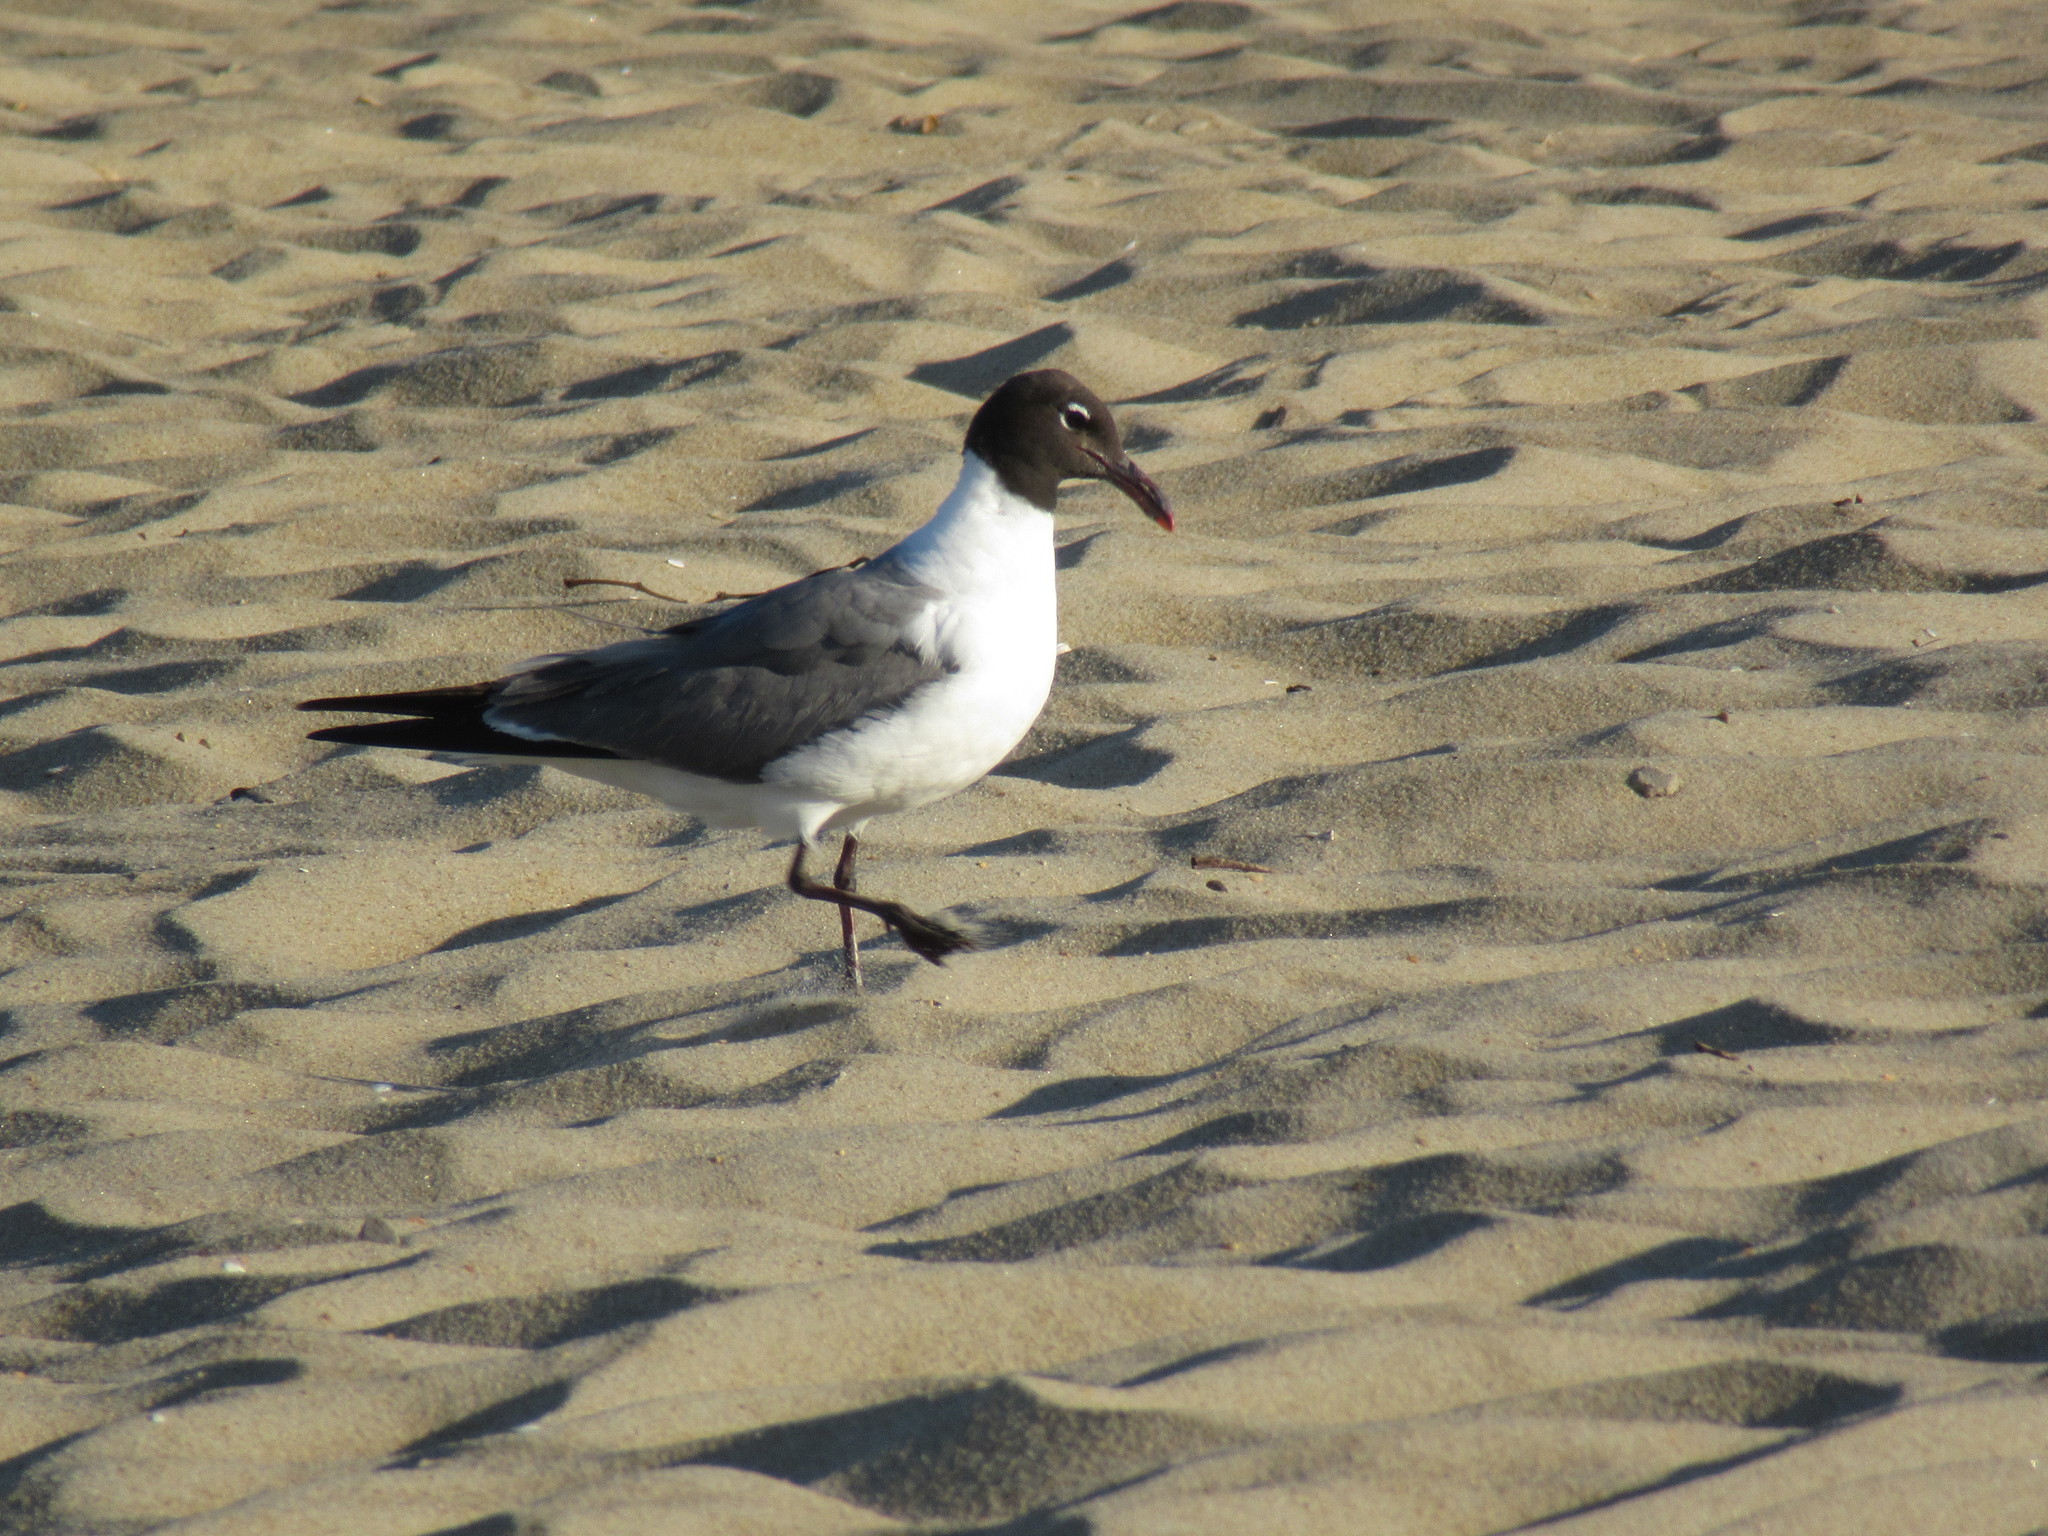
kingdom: Animalia
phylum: Chordata
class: Aves
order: Charadriiformes
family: Laridae
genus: Leucophaeus
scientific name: Leucophaeus atricilla
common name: Laughing gull
